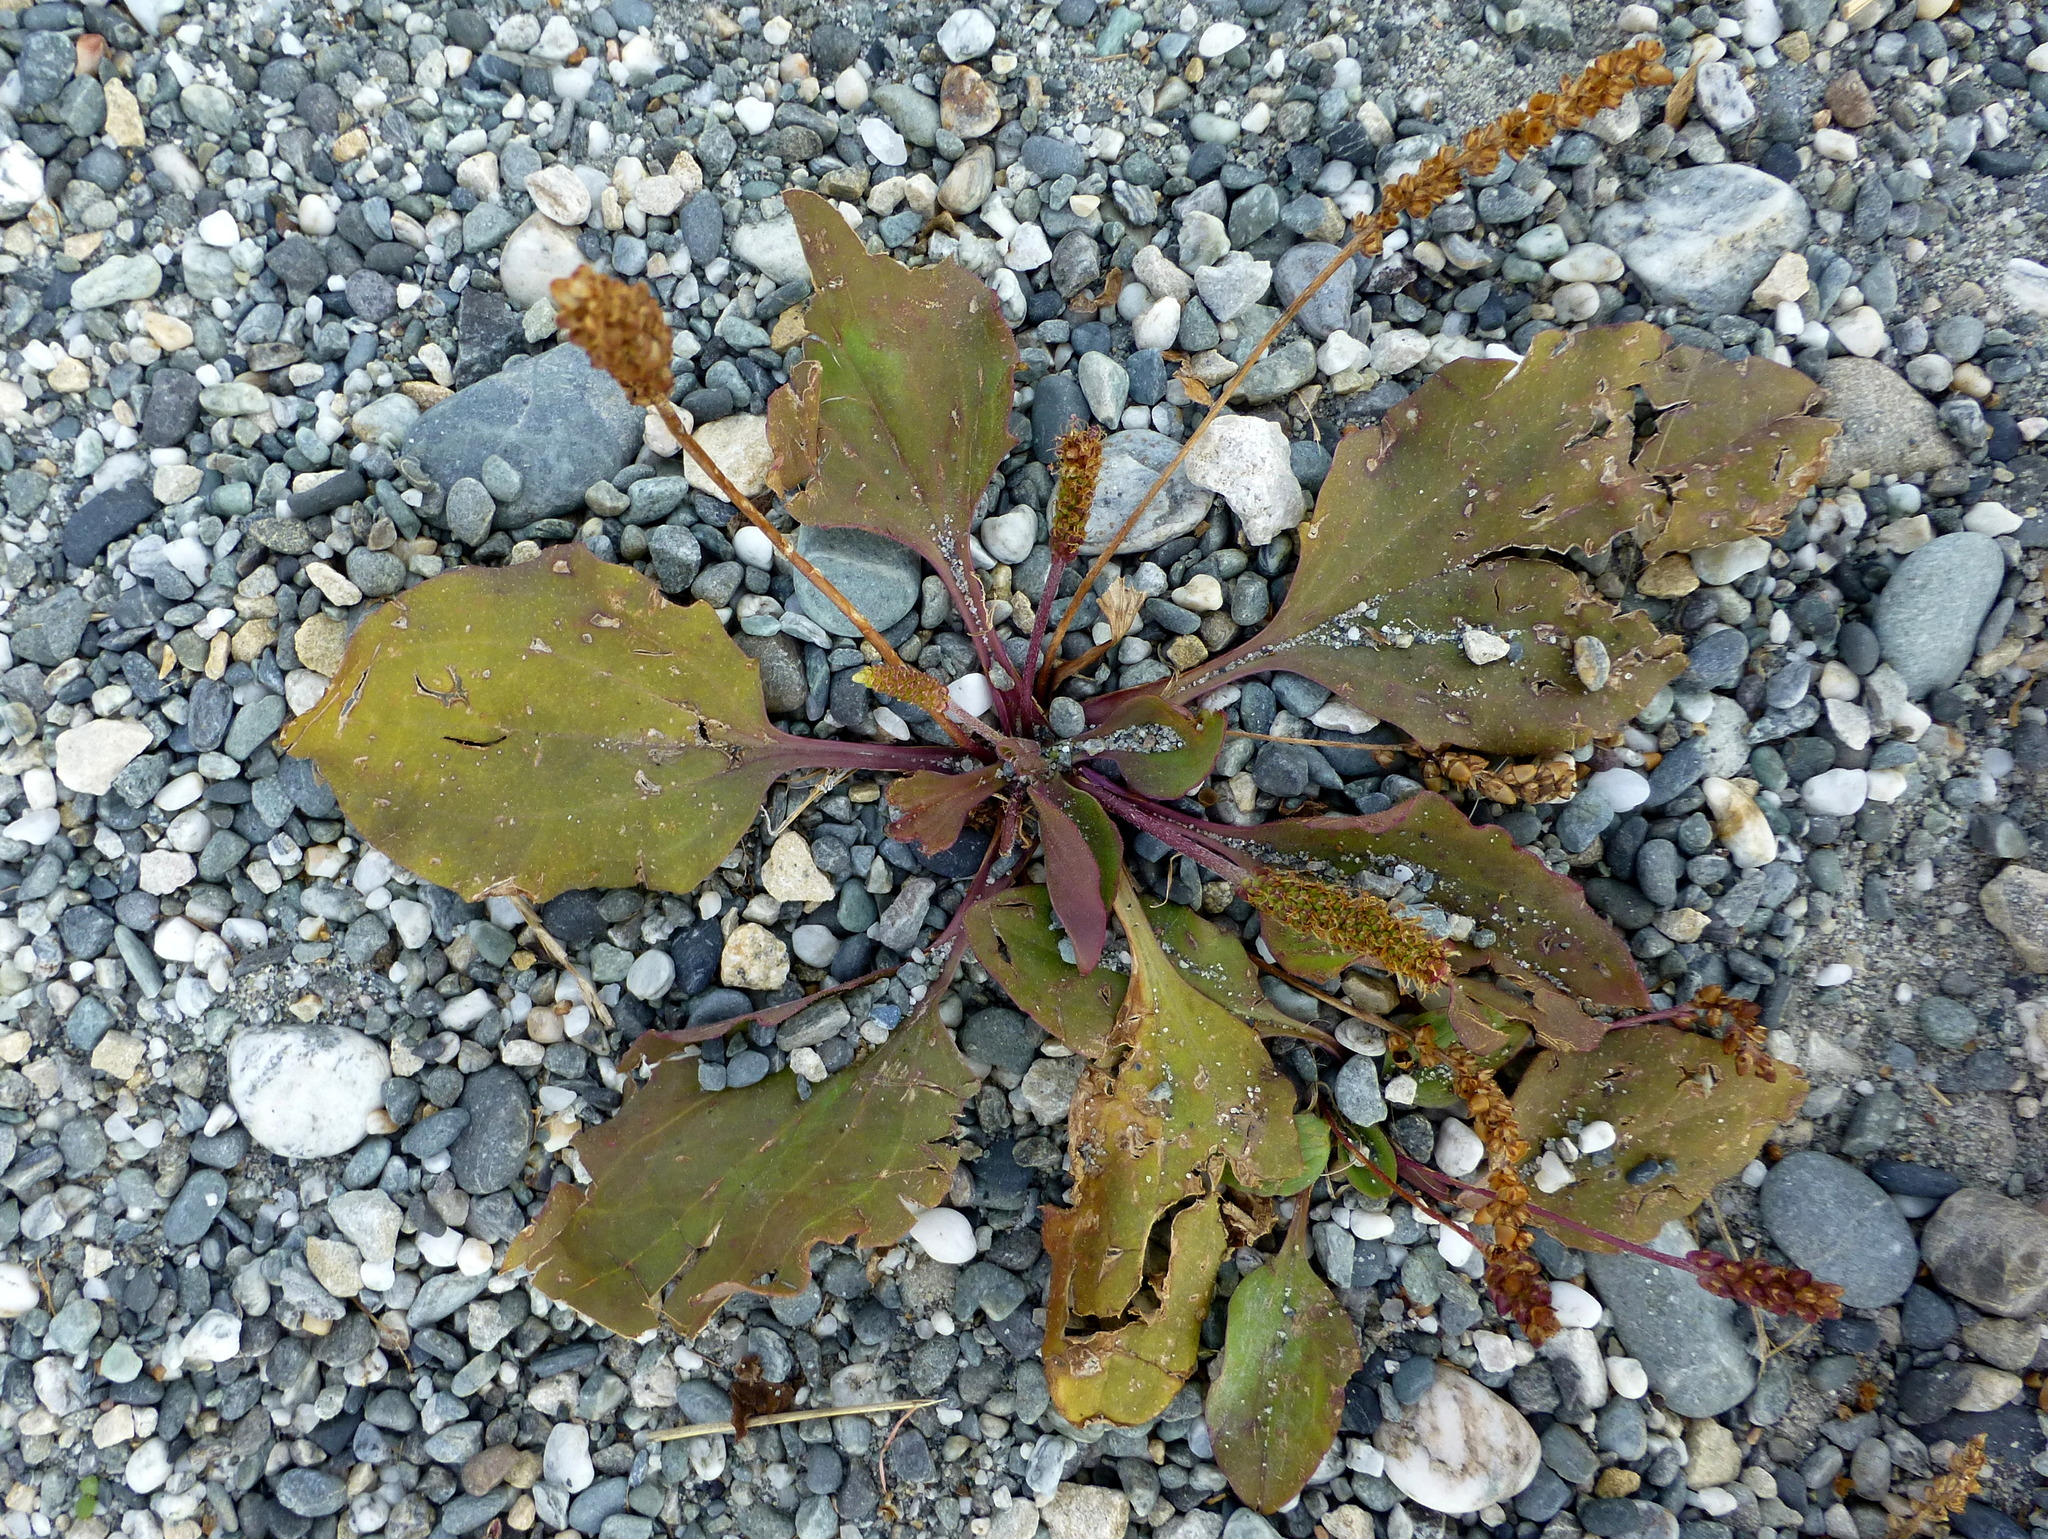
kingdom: Plantae
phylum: Tracheophyta
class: Magnoliopsida
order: Lamiales
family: Plantaginaceae
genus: Plantago
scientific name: Plantago major
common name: Common plantain
